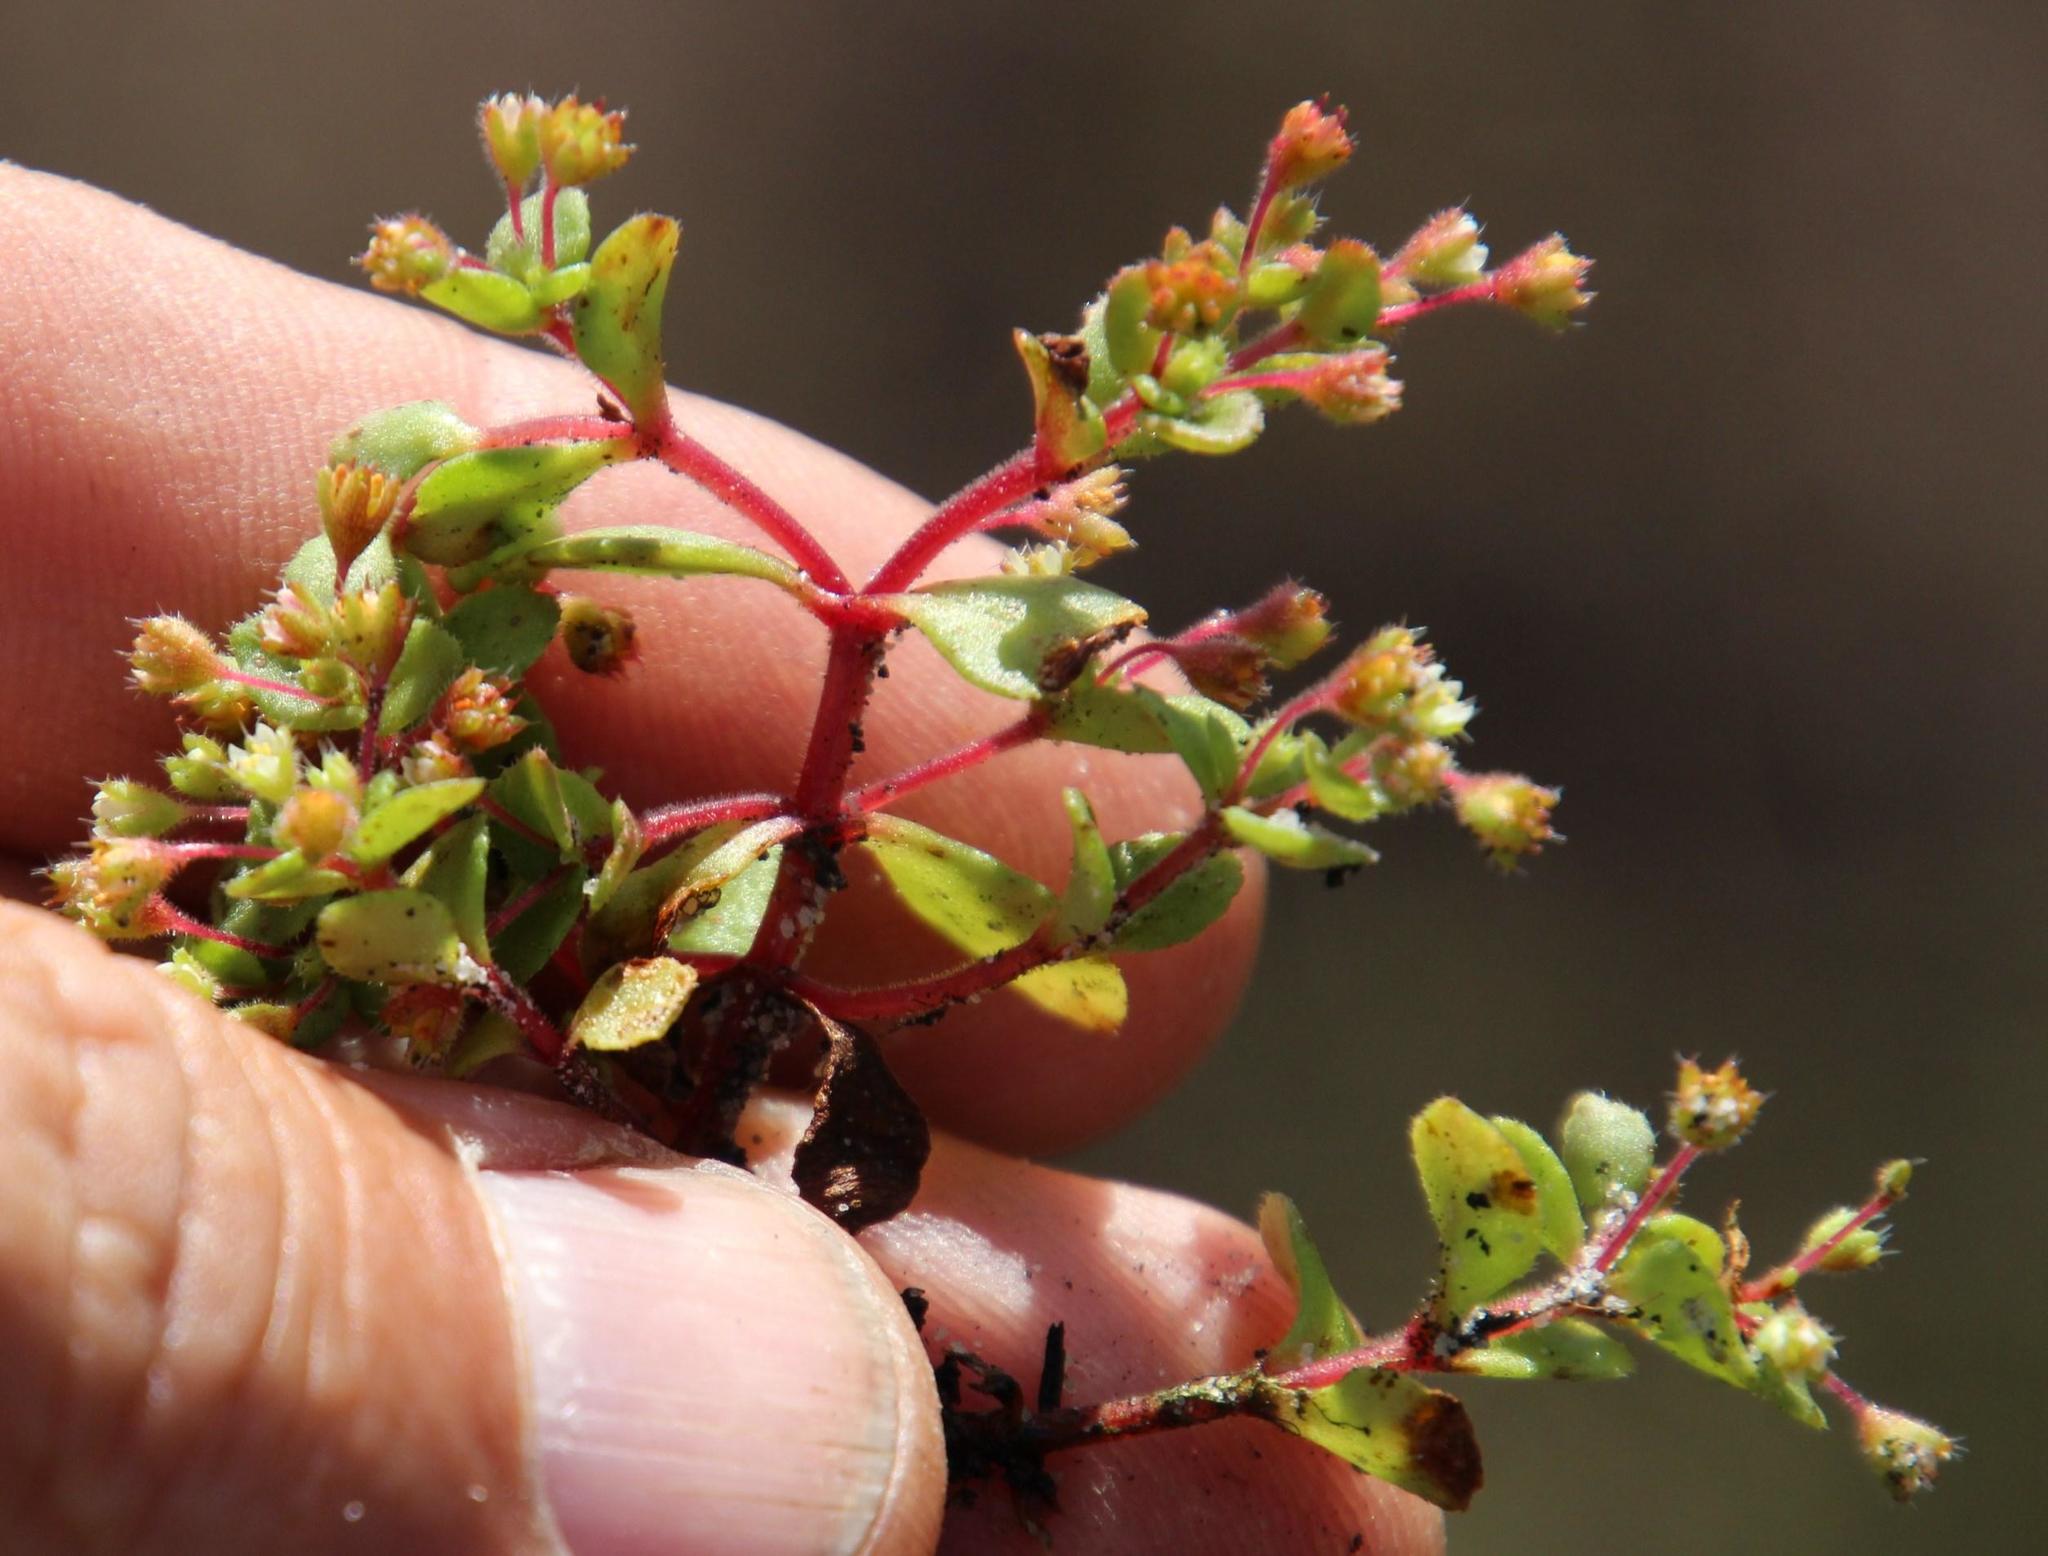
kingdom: Plantae
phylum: Tracheophyta
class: Magnoliopsida
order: Saxifragales
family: Crassulaceae
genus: Crassula
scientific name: Crassula strigosa
